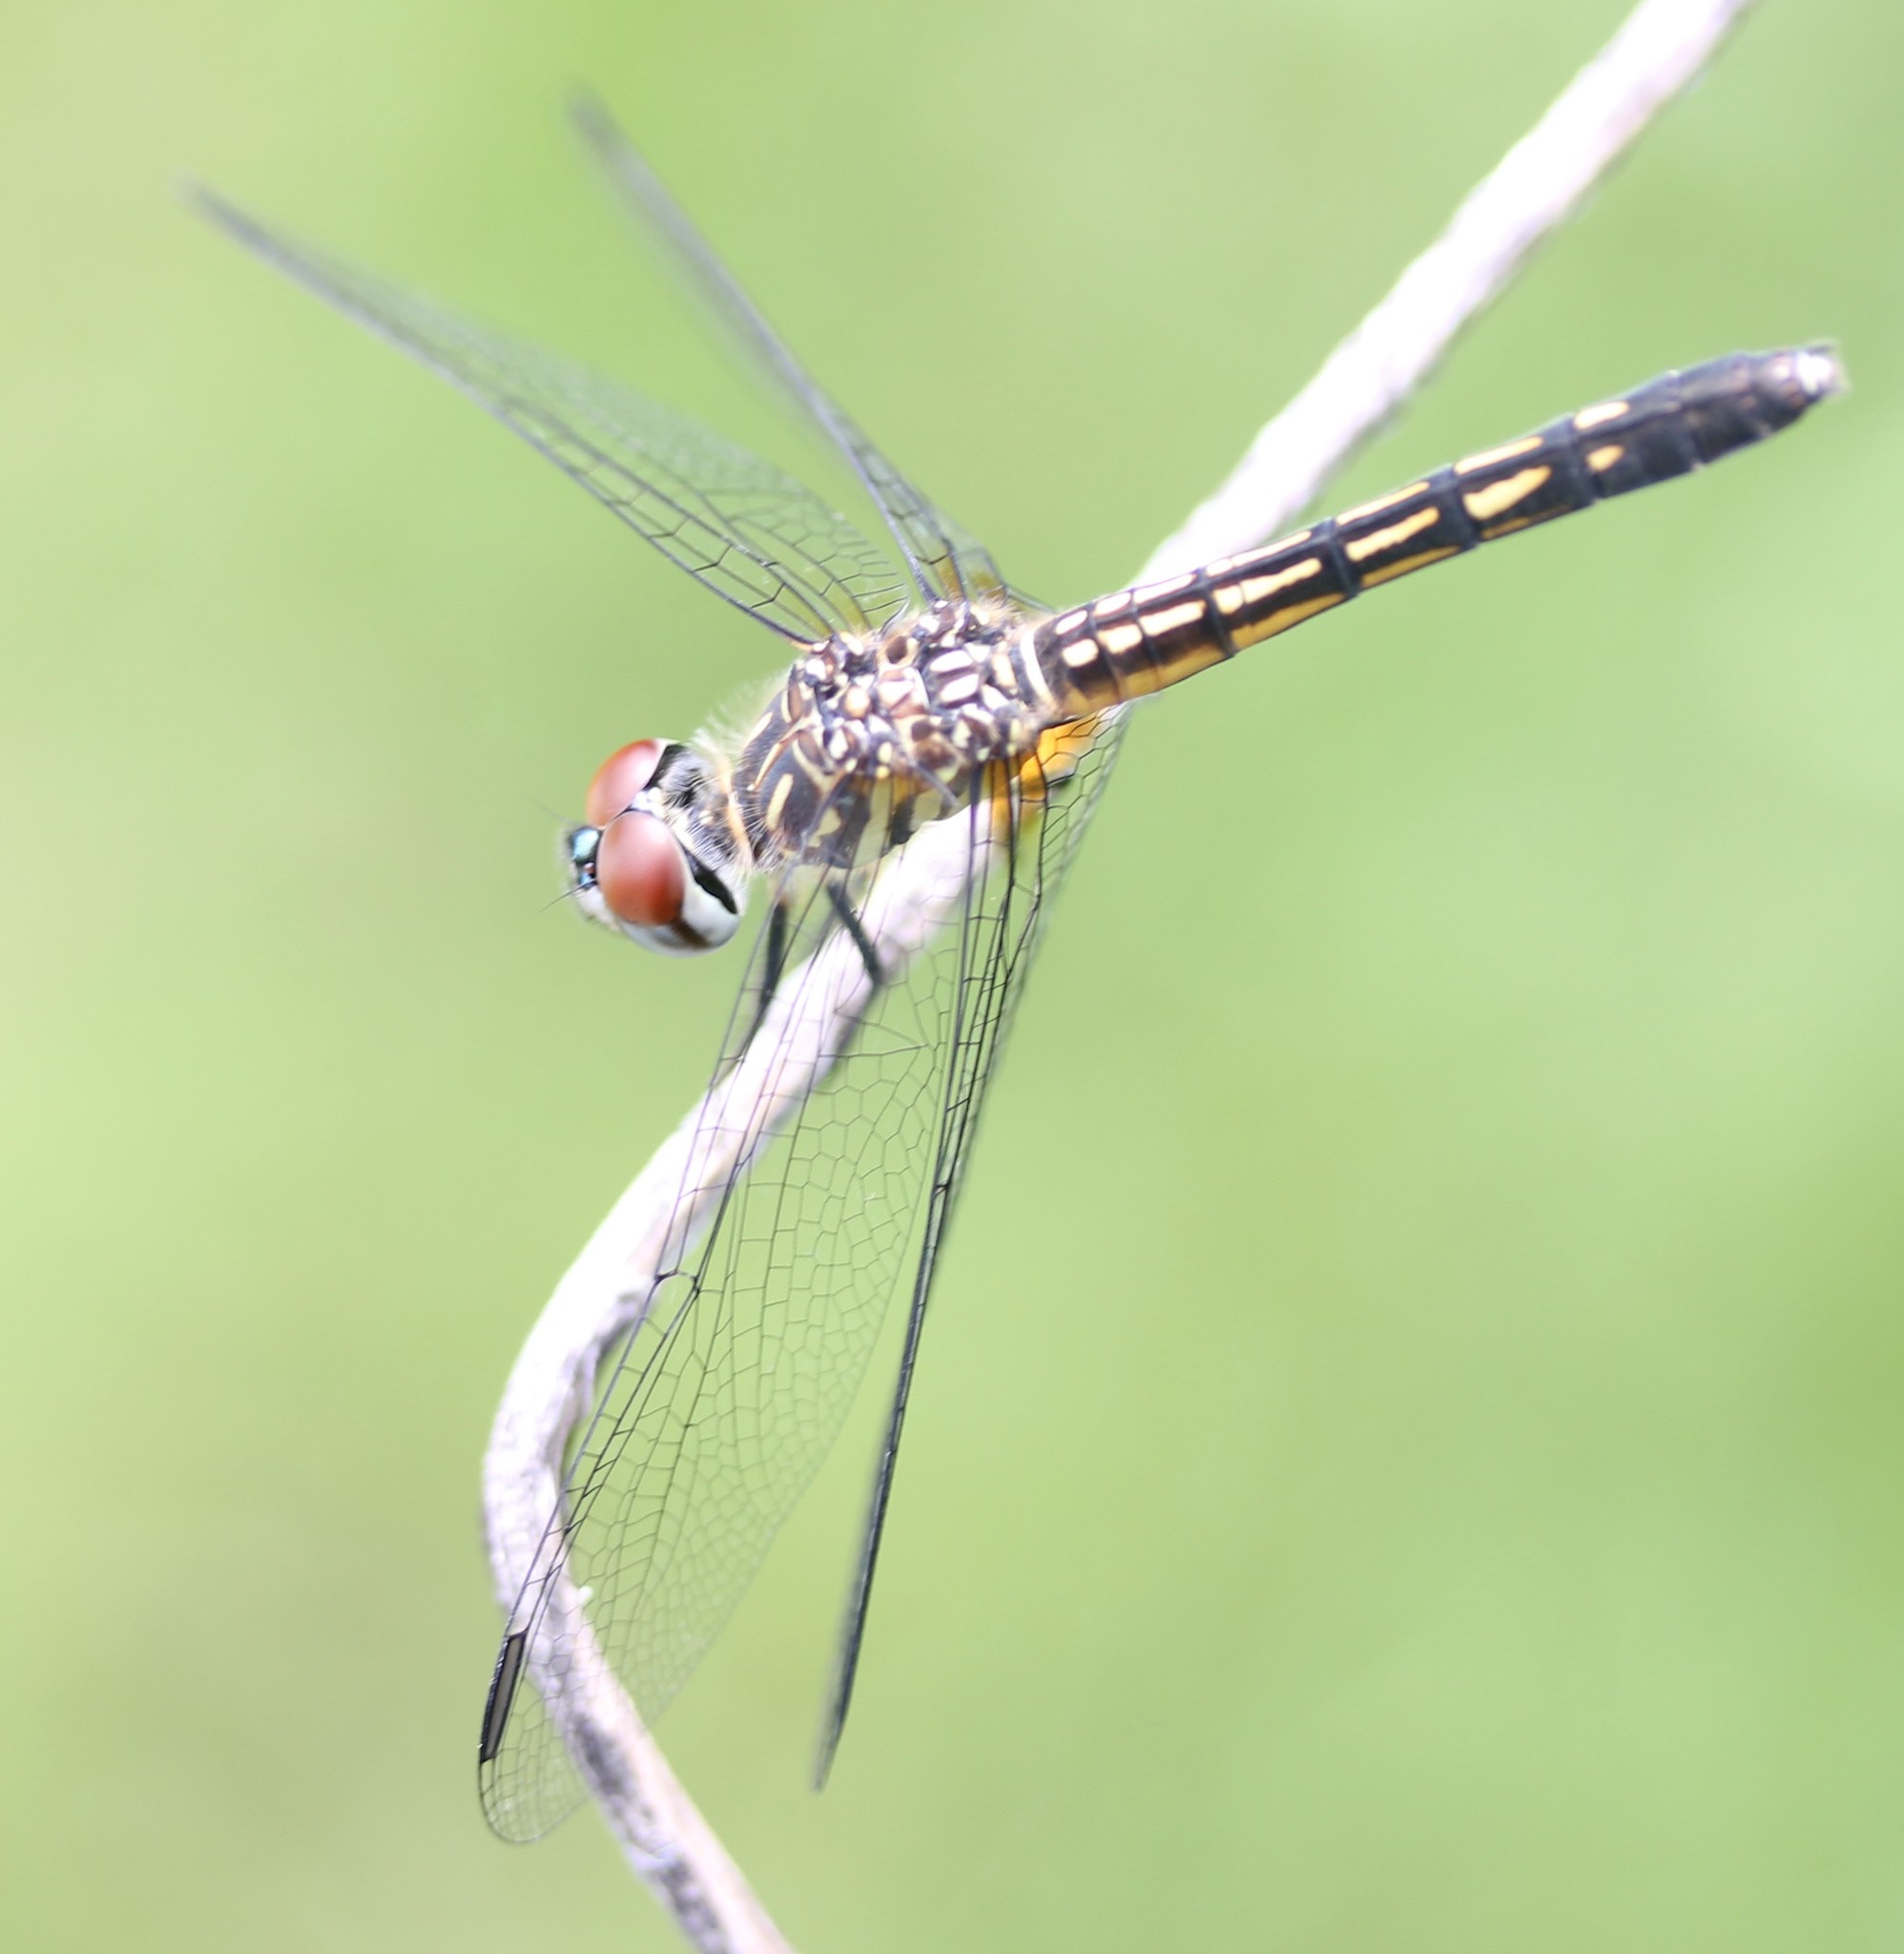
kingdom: Animalia
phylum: Arthropoda
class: Insecta
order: Odonata
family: Libellulidae
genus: Pachydiplax
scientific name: Pachydiplax longipennis
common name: Blue dasher
